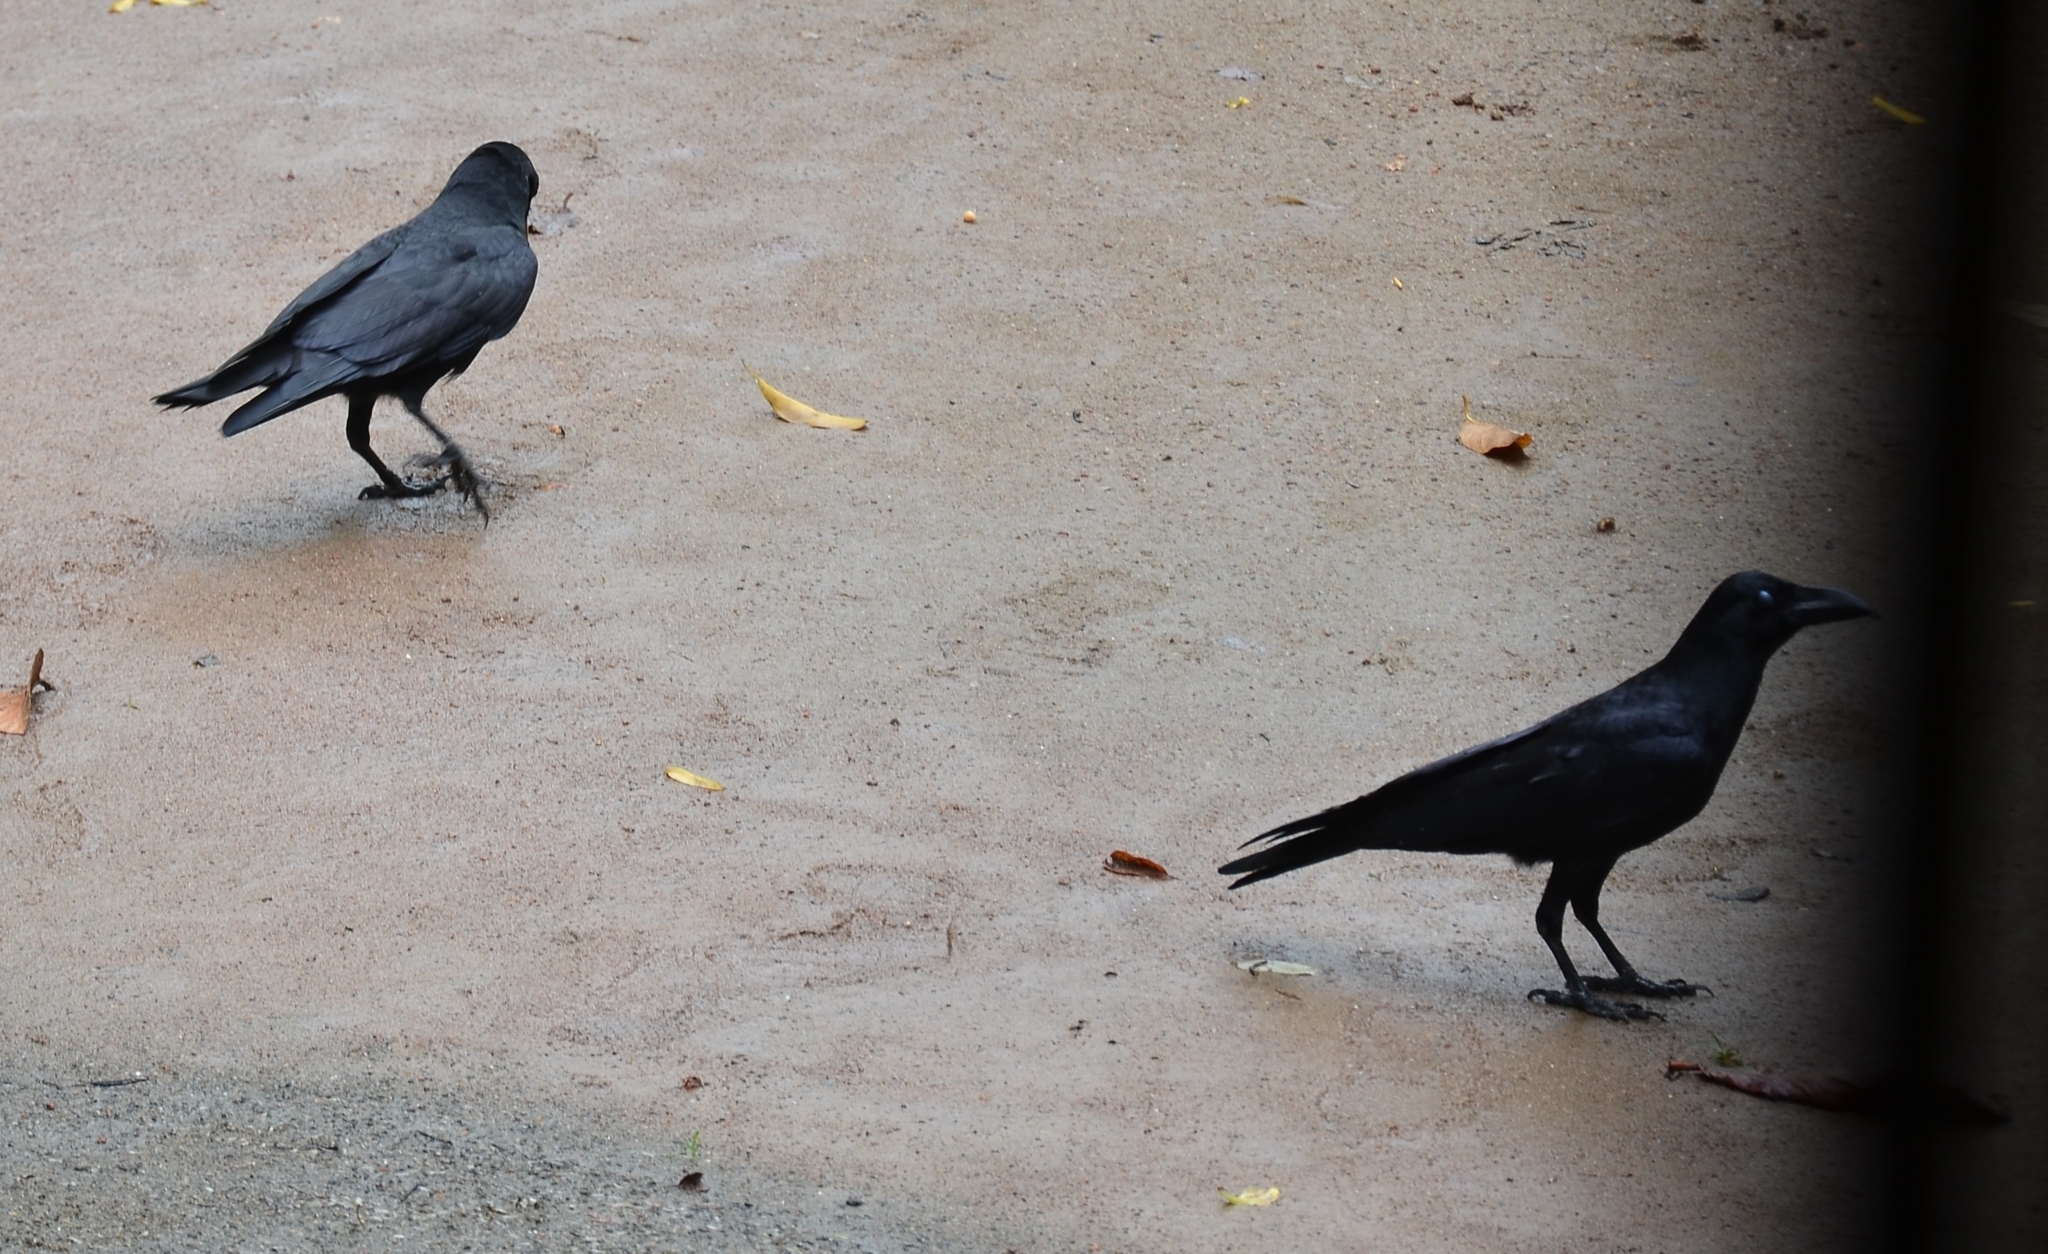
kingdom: Animalia
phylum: Chordata
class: Aves
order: Passeriformes
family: Corvidae
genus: Corvus
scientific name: Corvus macrorhynchos
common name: Large-billed crow
